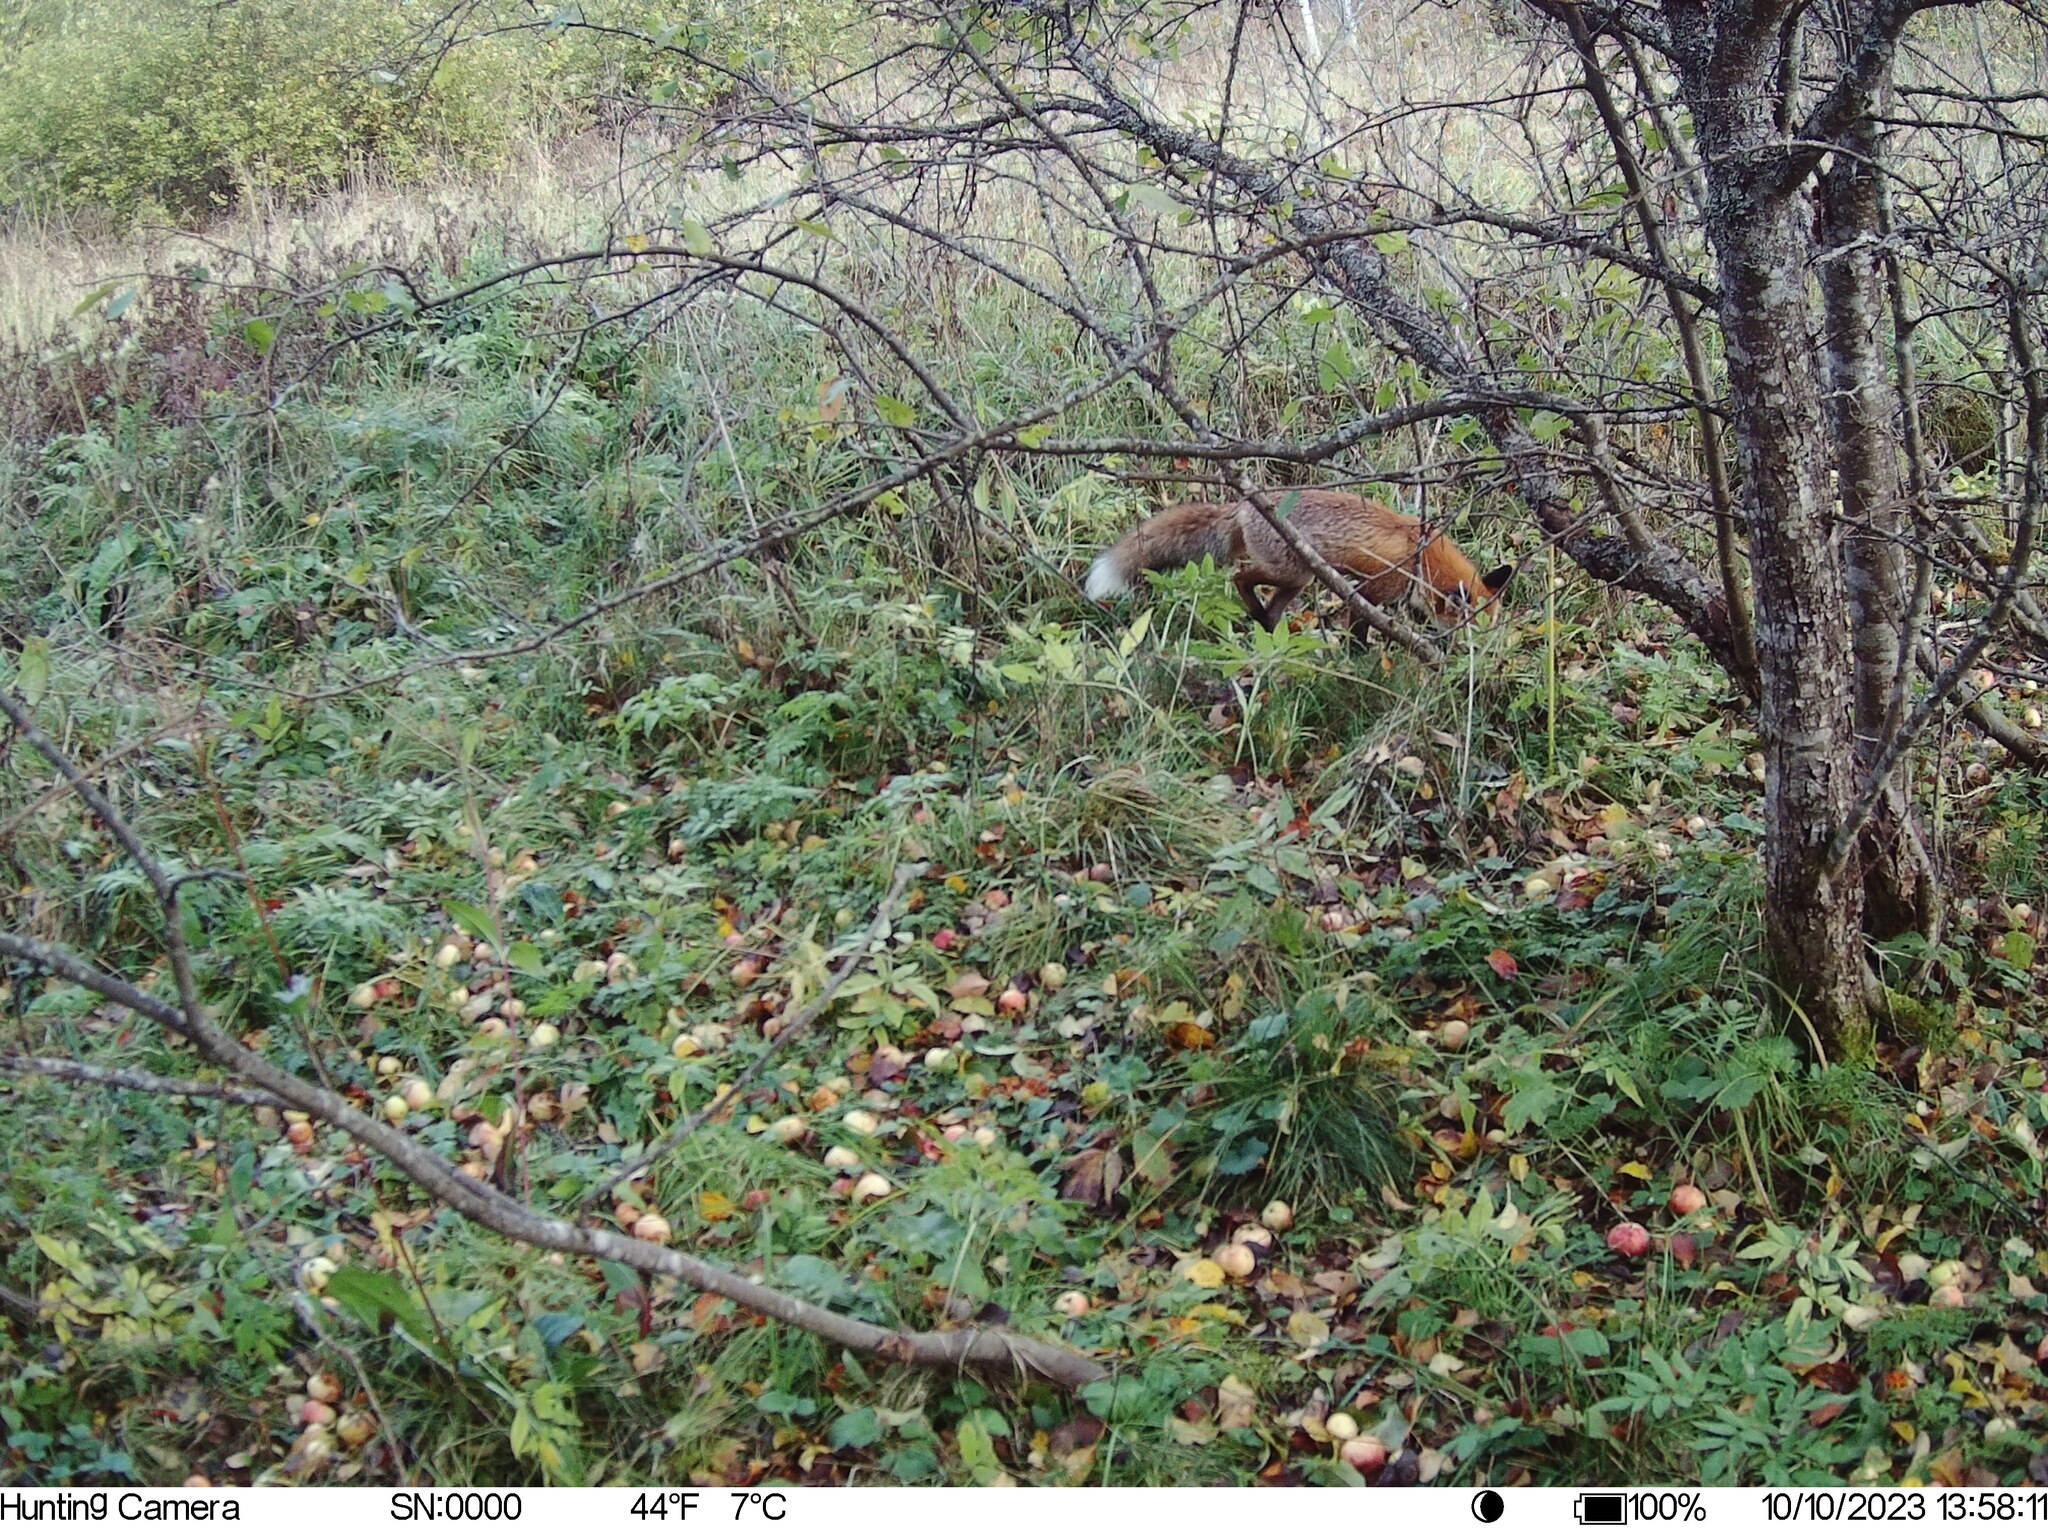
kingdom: Animalia
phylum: Chordata
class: Mammalia
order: Carnivora
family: Canidae
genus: Vulpes
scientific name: Vulpes vulpes
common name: Red fox
